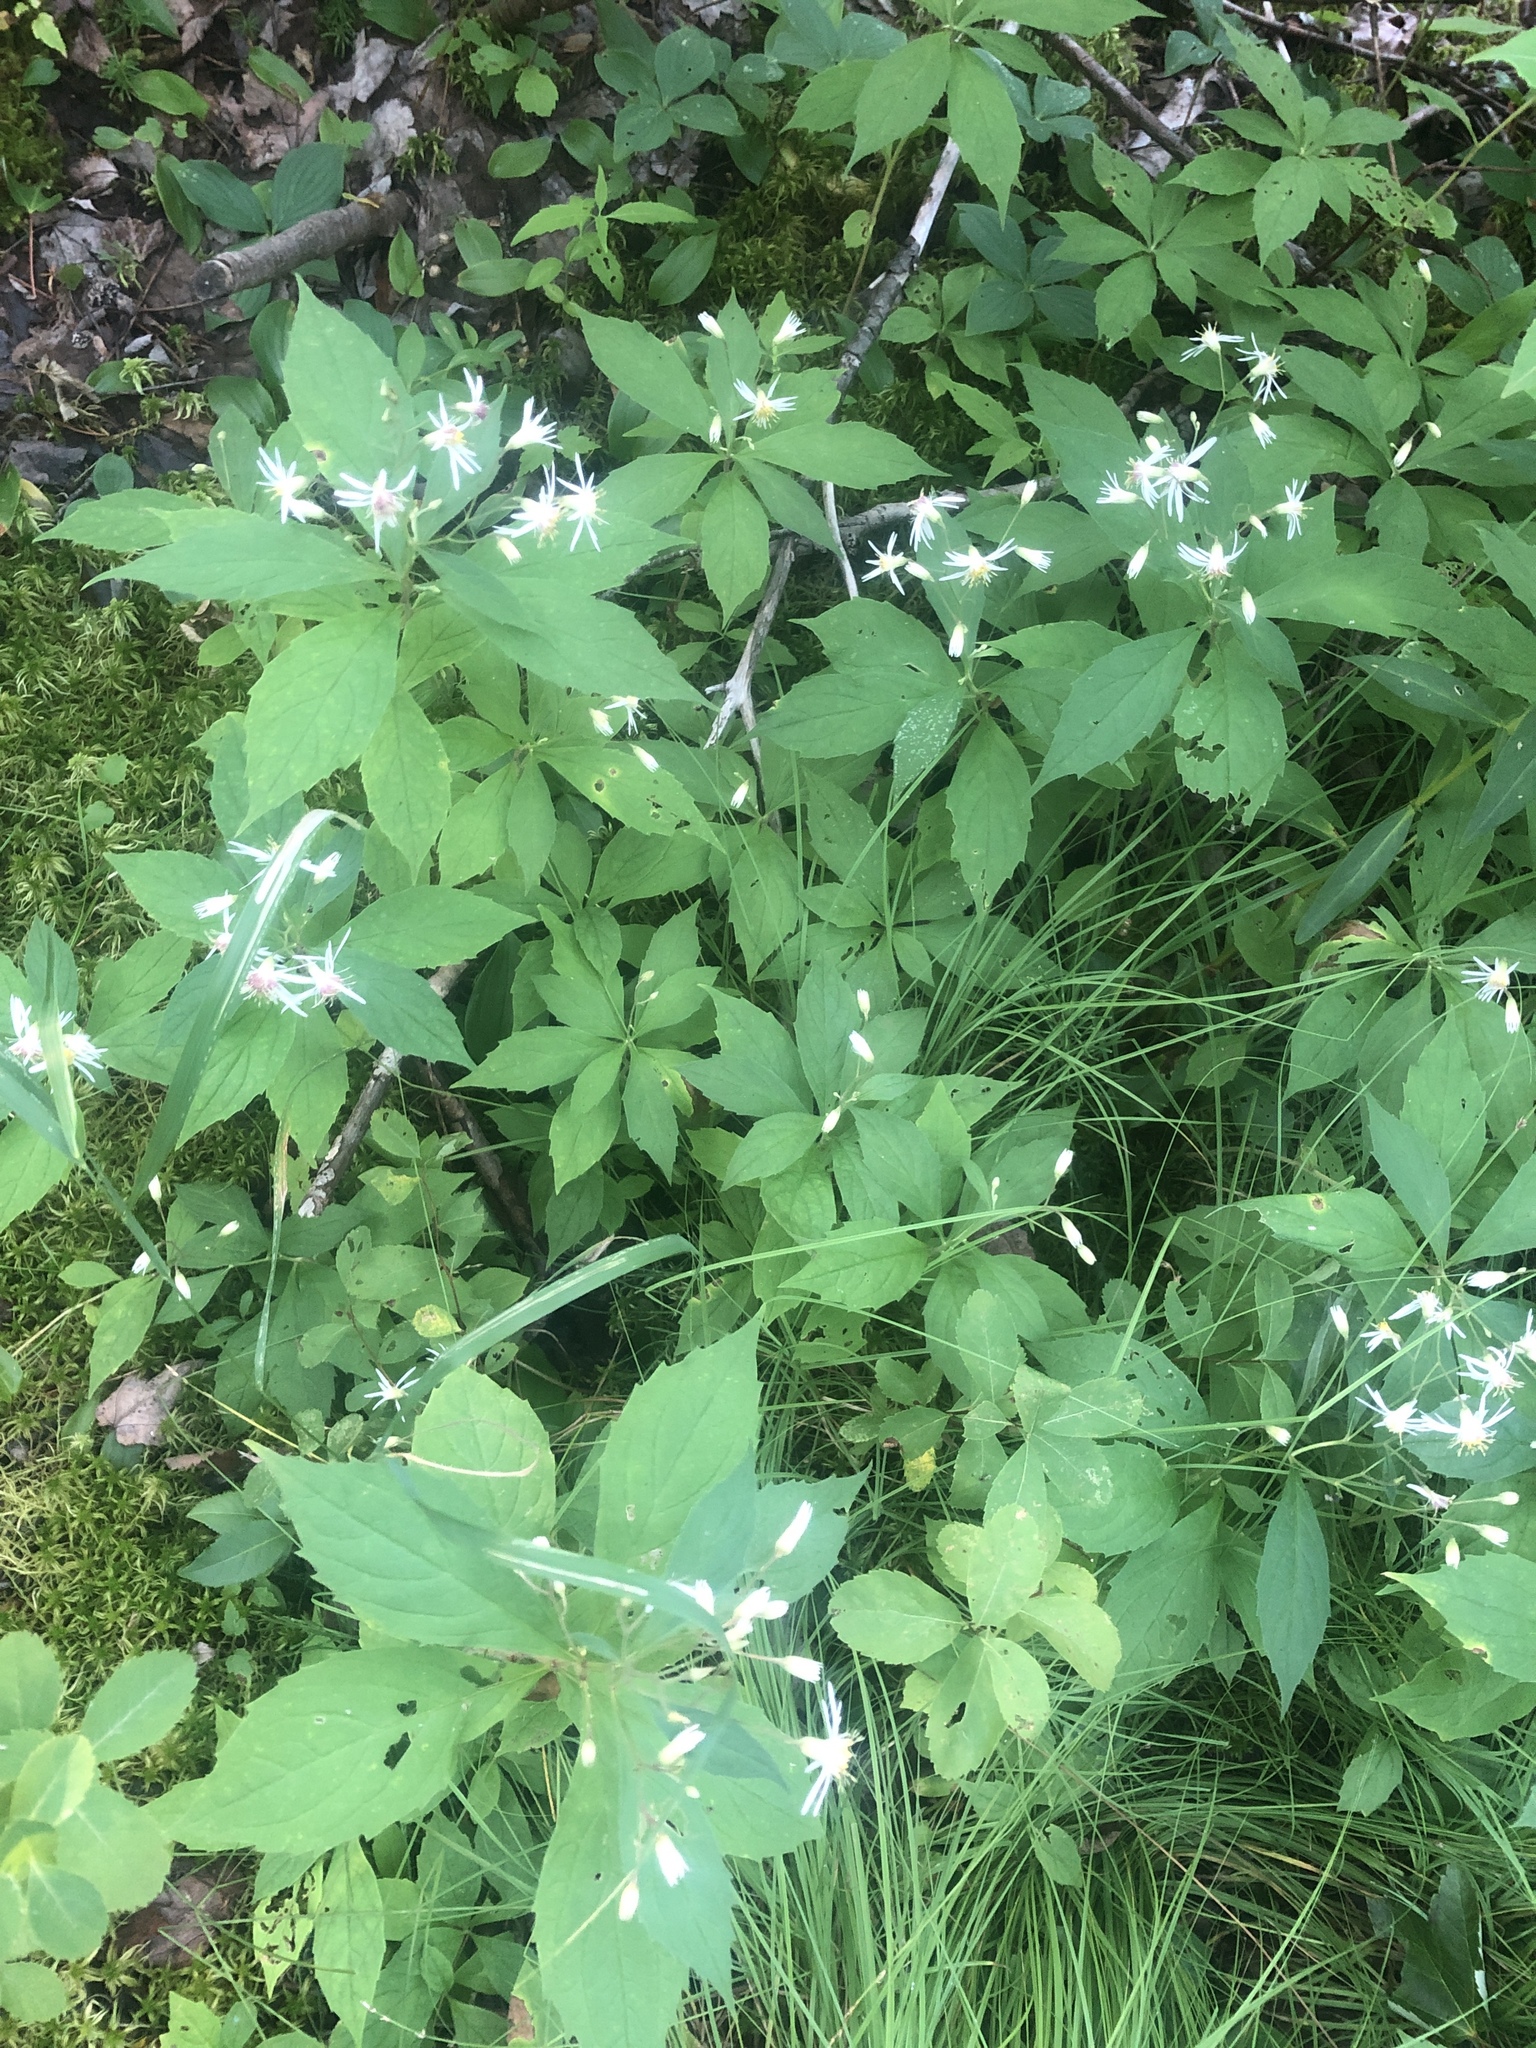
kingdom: Plantae
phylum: Tracheophyta
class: Magnoliopsida
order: Asterales
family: Asteraceae
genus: Oclemena
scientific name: Oclemena acuminata
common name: Mountain aster
